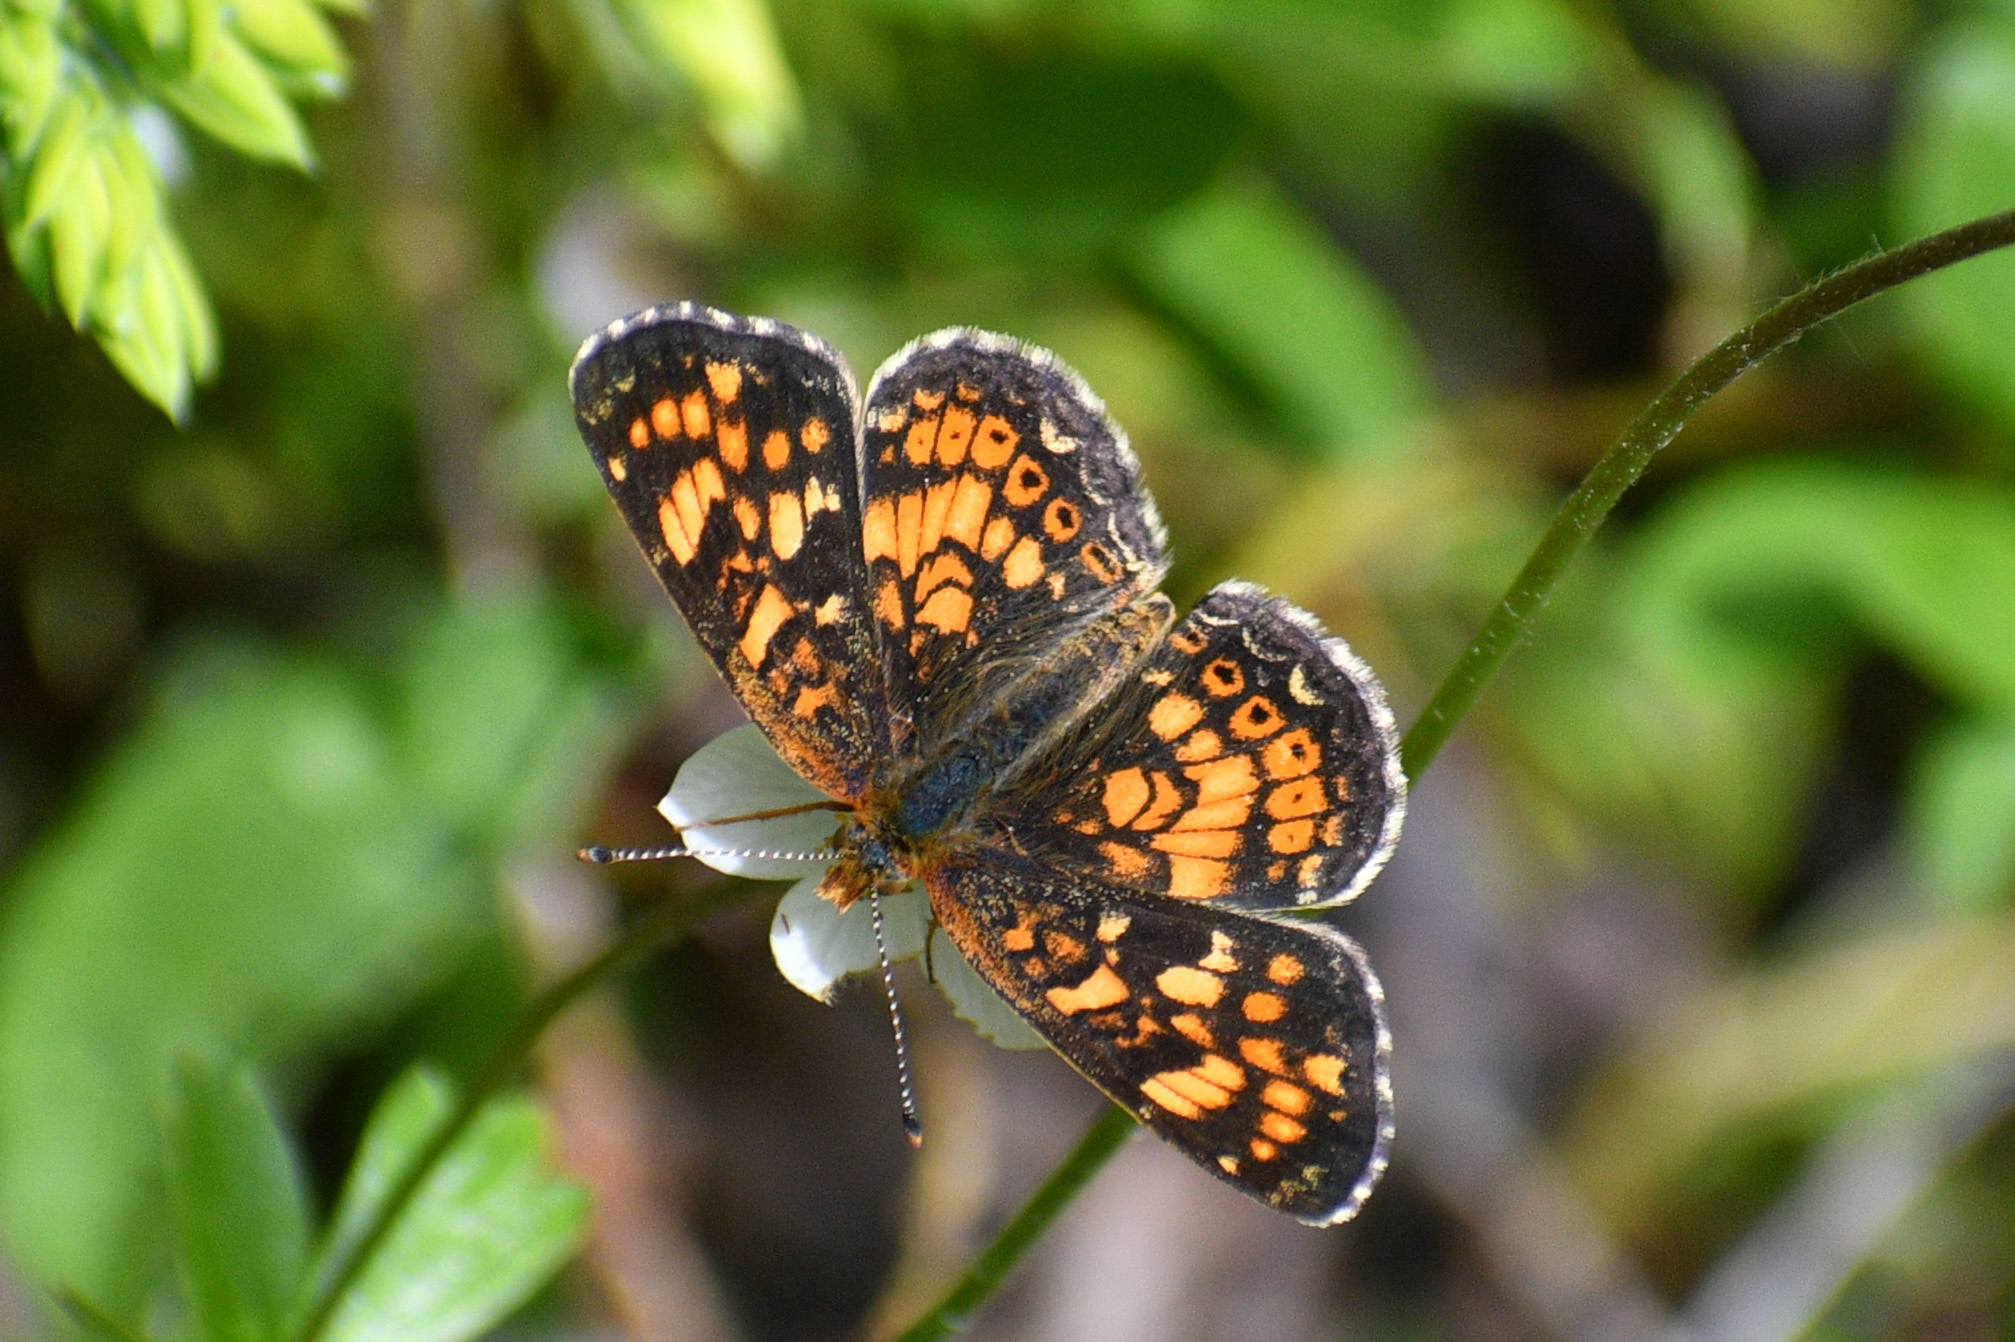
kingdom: Animalia
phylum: Arthropoda
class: Insecta
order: Lepidoptera
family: Nymphalidae
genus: Phyciodes
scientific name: Phyciodes tharos
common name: Pearl crescent
